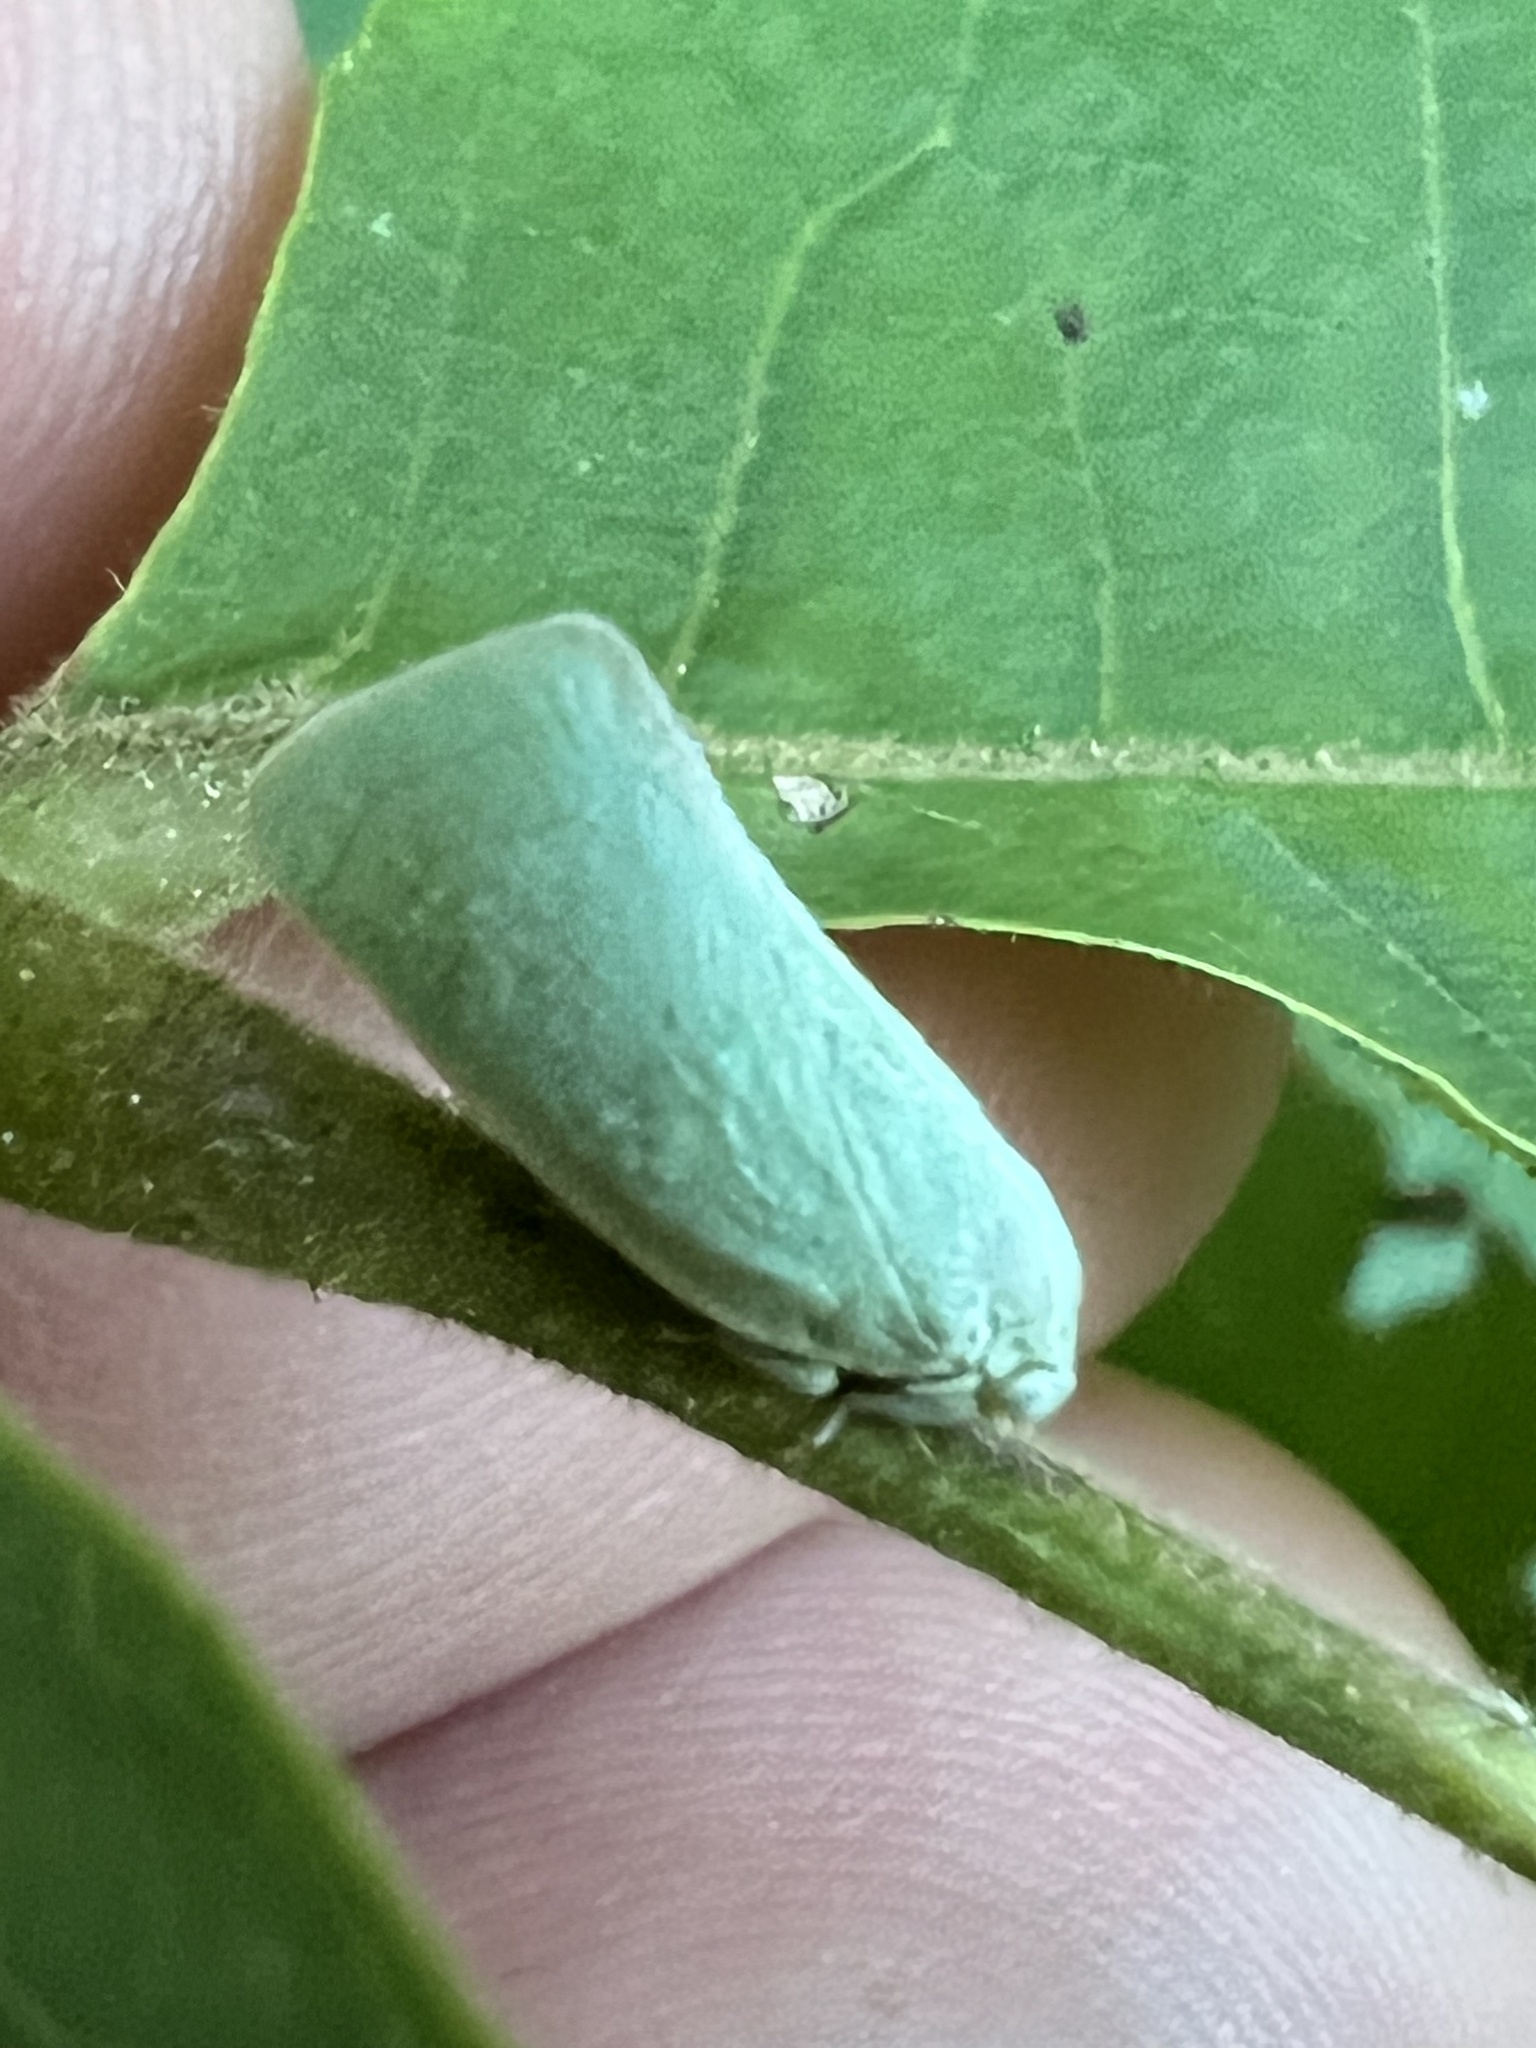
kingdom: Animalia
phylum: Arthropoda
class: Insecta
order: Hemiptera
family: Flatidae
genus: Flatormenis
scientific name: Flatormenis proxima
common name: Northern flatid planthopper
